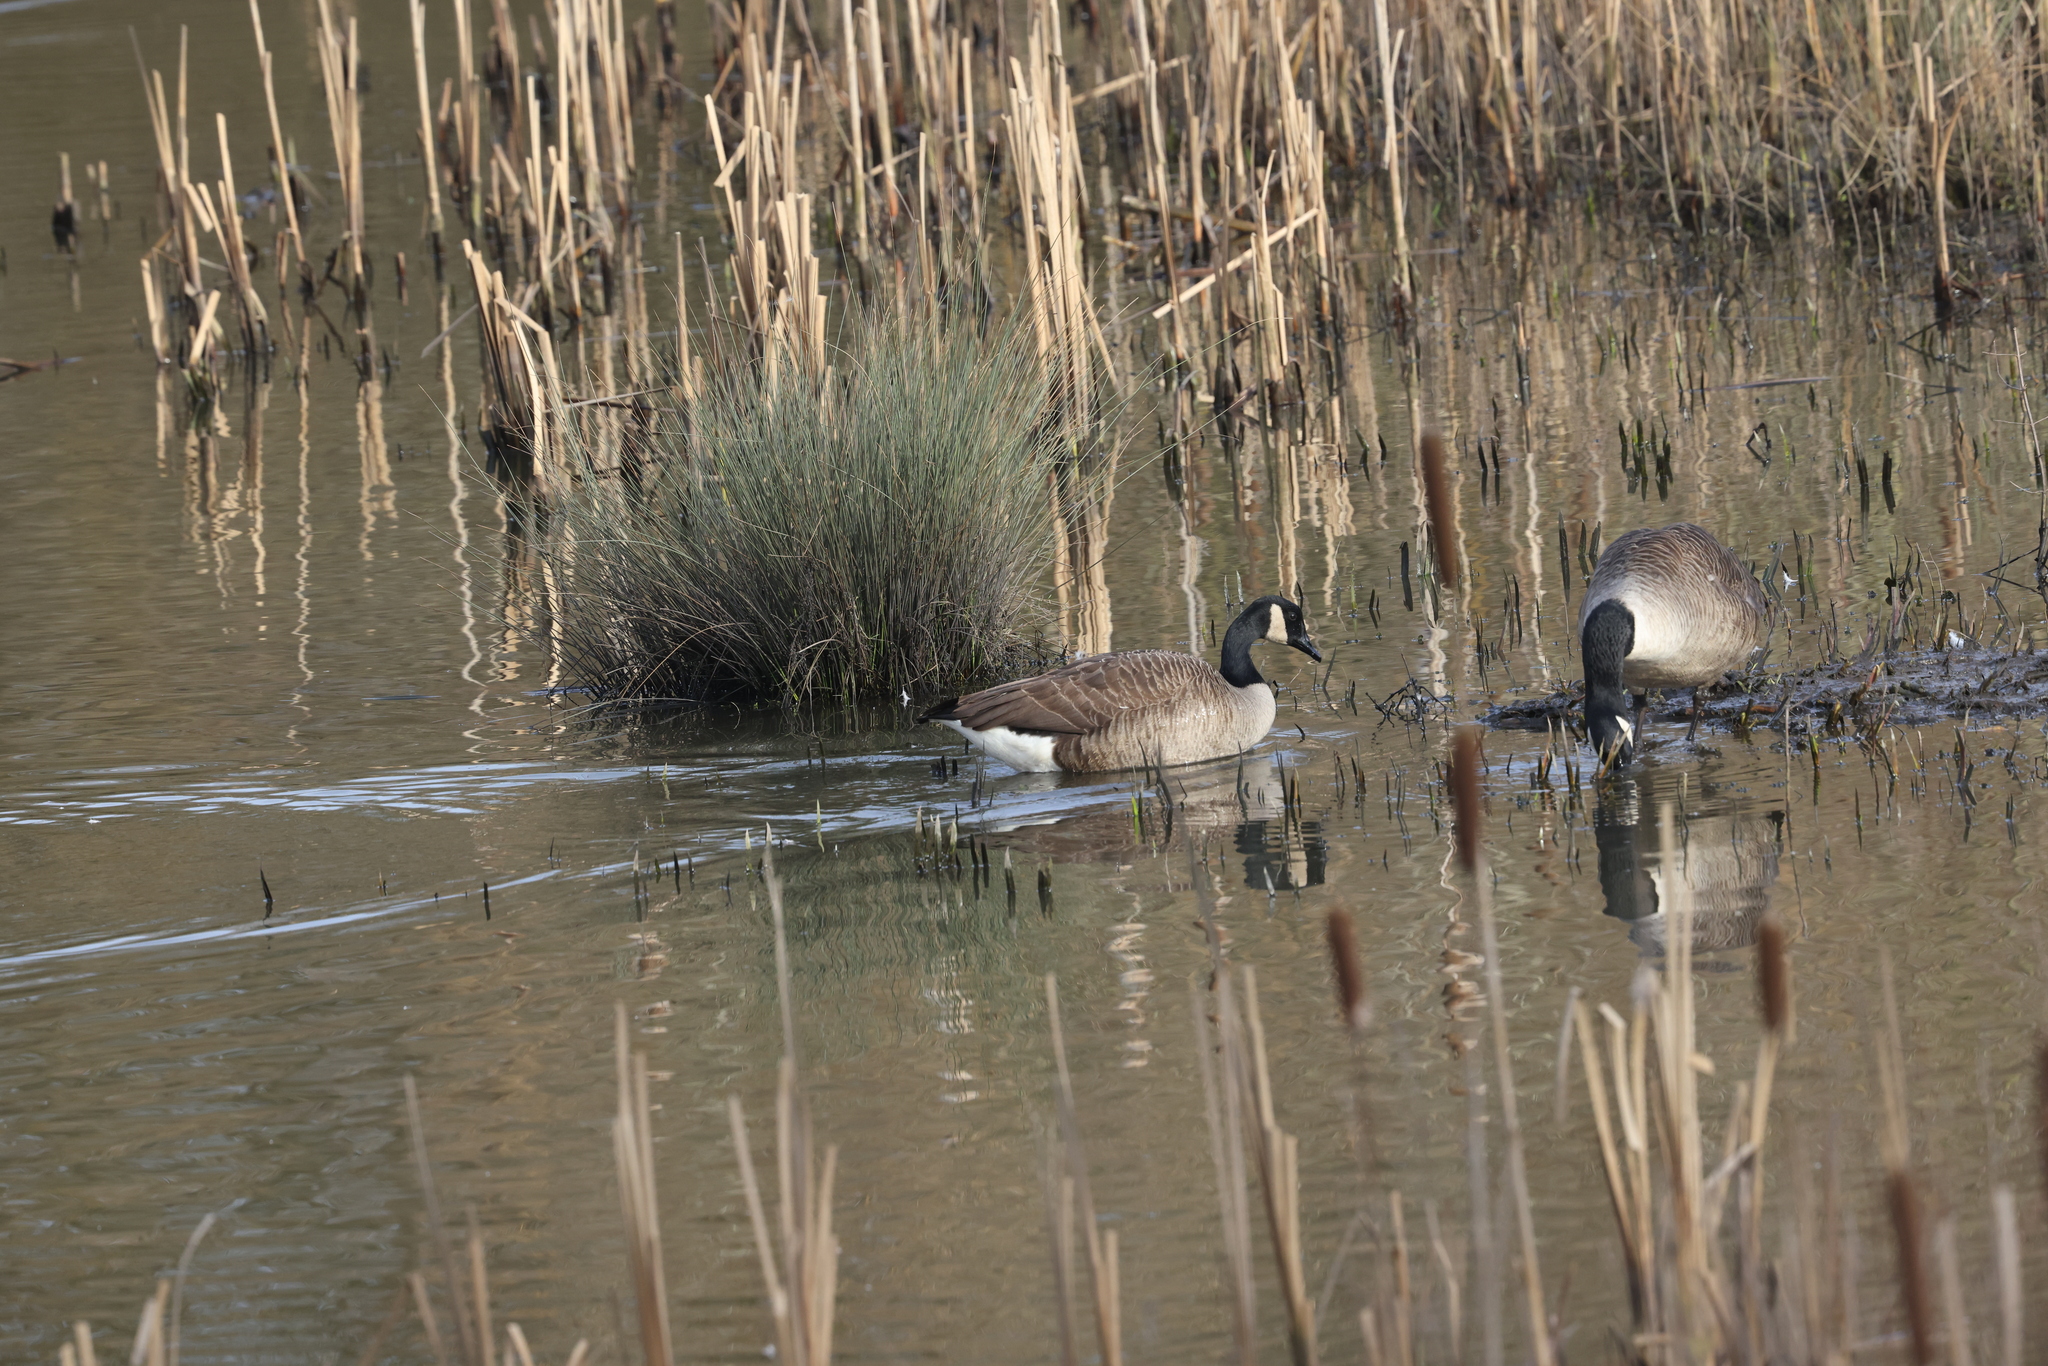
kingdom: Animalia
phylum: Chordata
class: Aves
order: Anseriformes
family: Anatidae
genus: Branta
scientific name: Branta canadensis
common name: Canada goose
